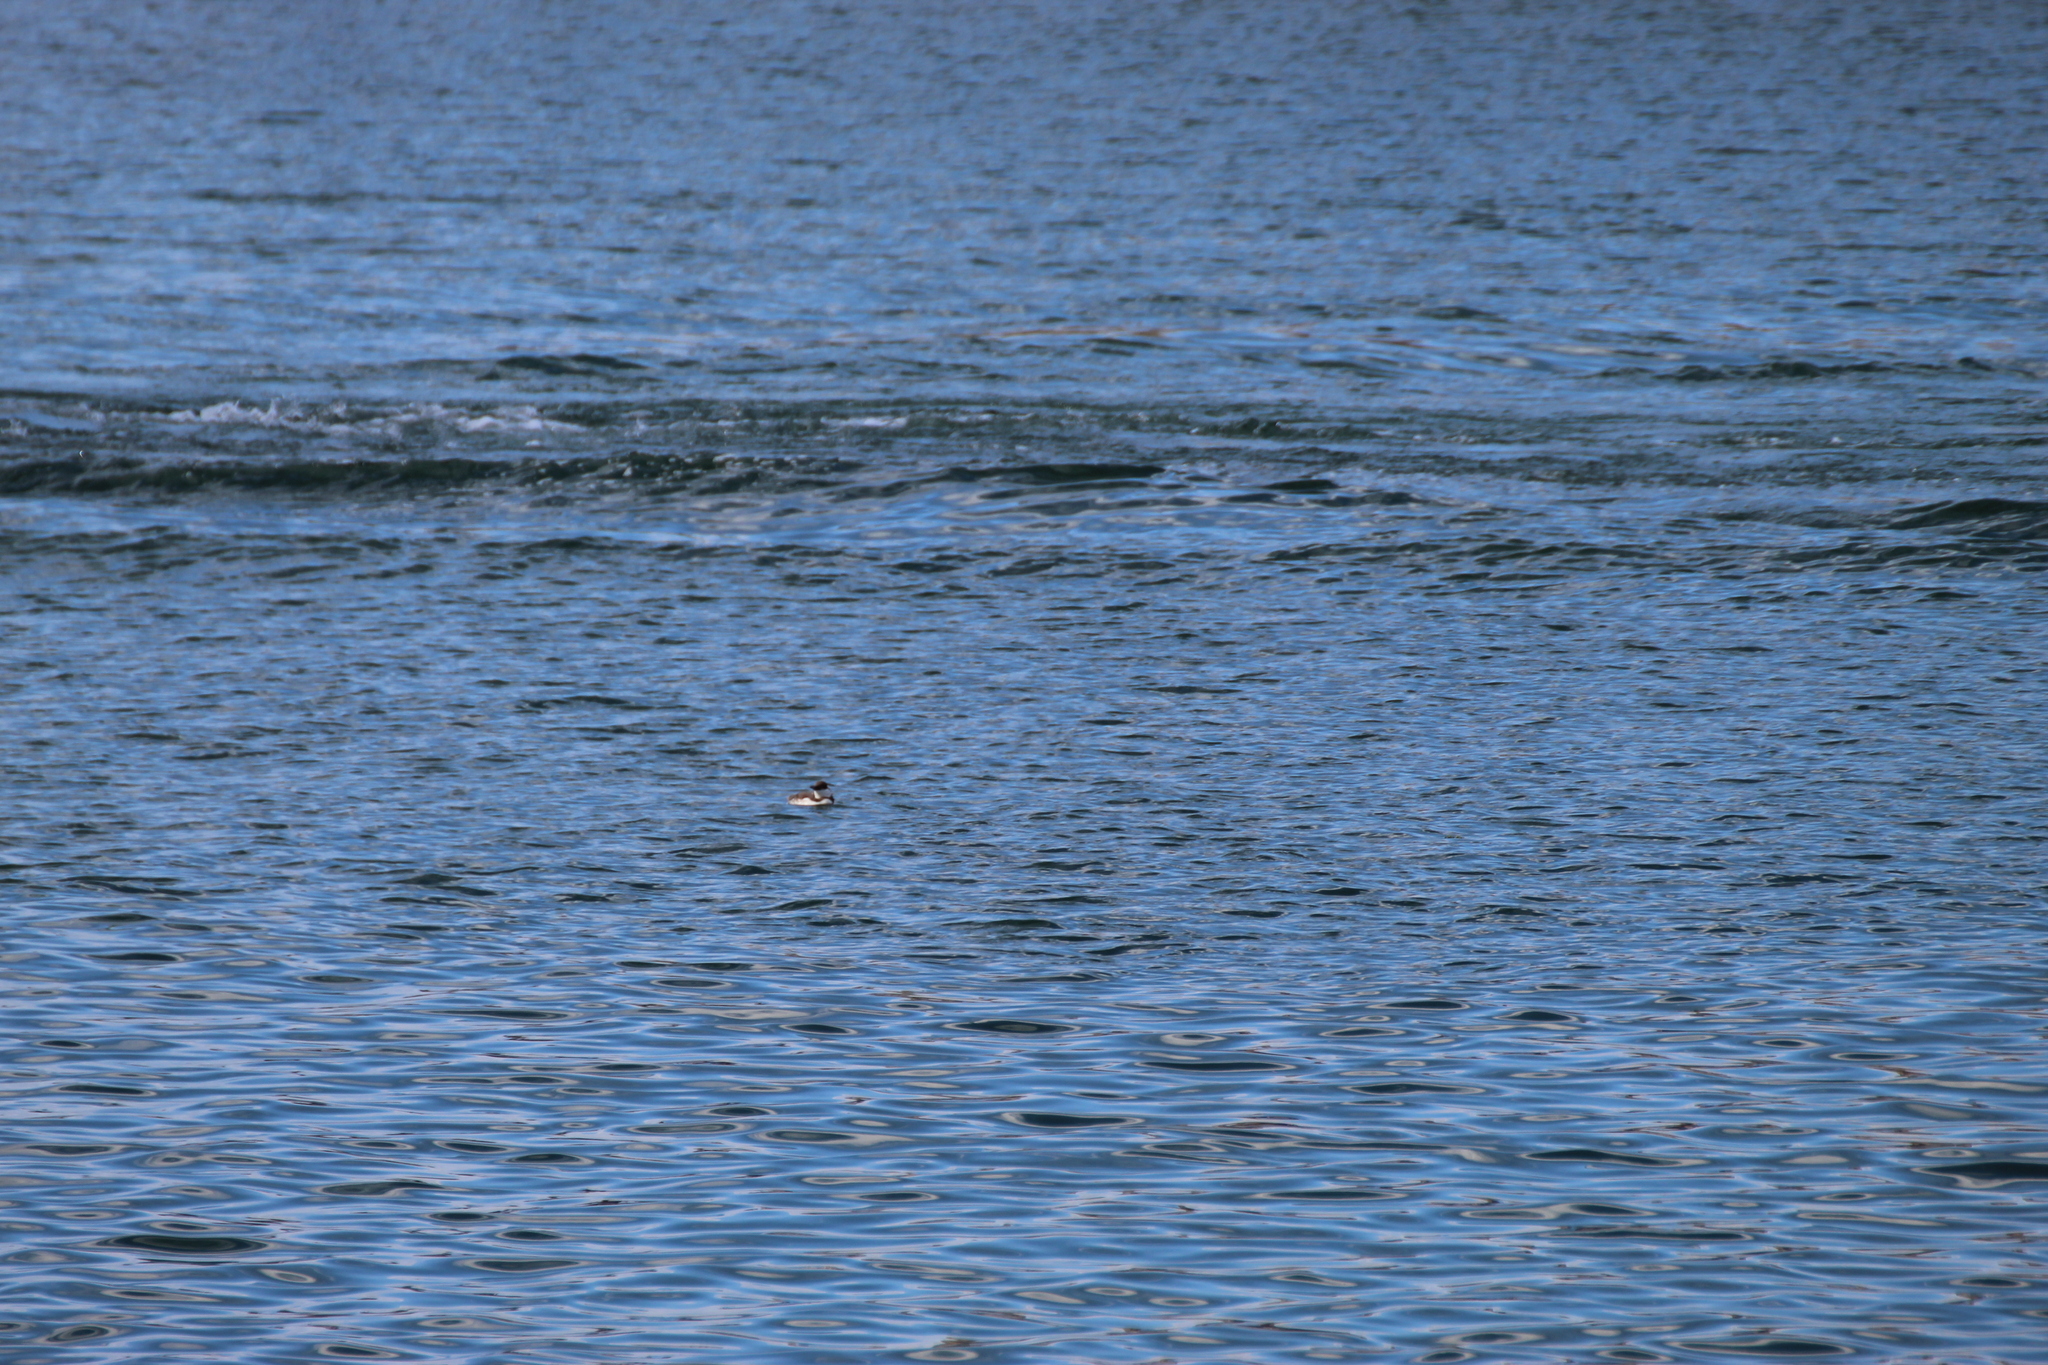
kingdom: Animalia
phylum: Chordata
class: Aves
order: Charadriiformes
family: Alcidae
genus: Uria
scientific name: Uria aalge
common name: Common murre
